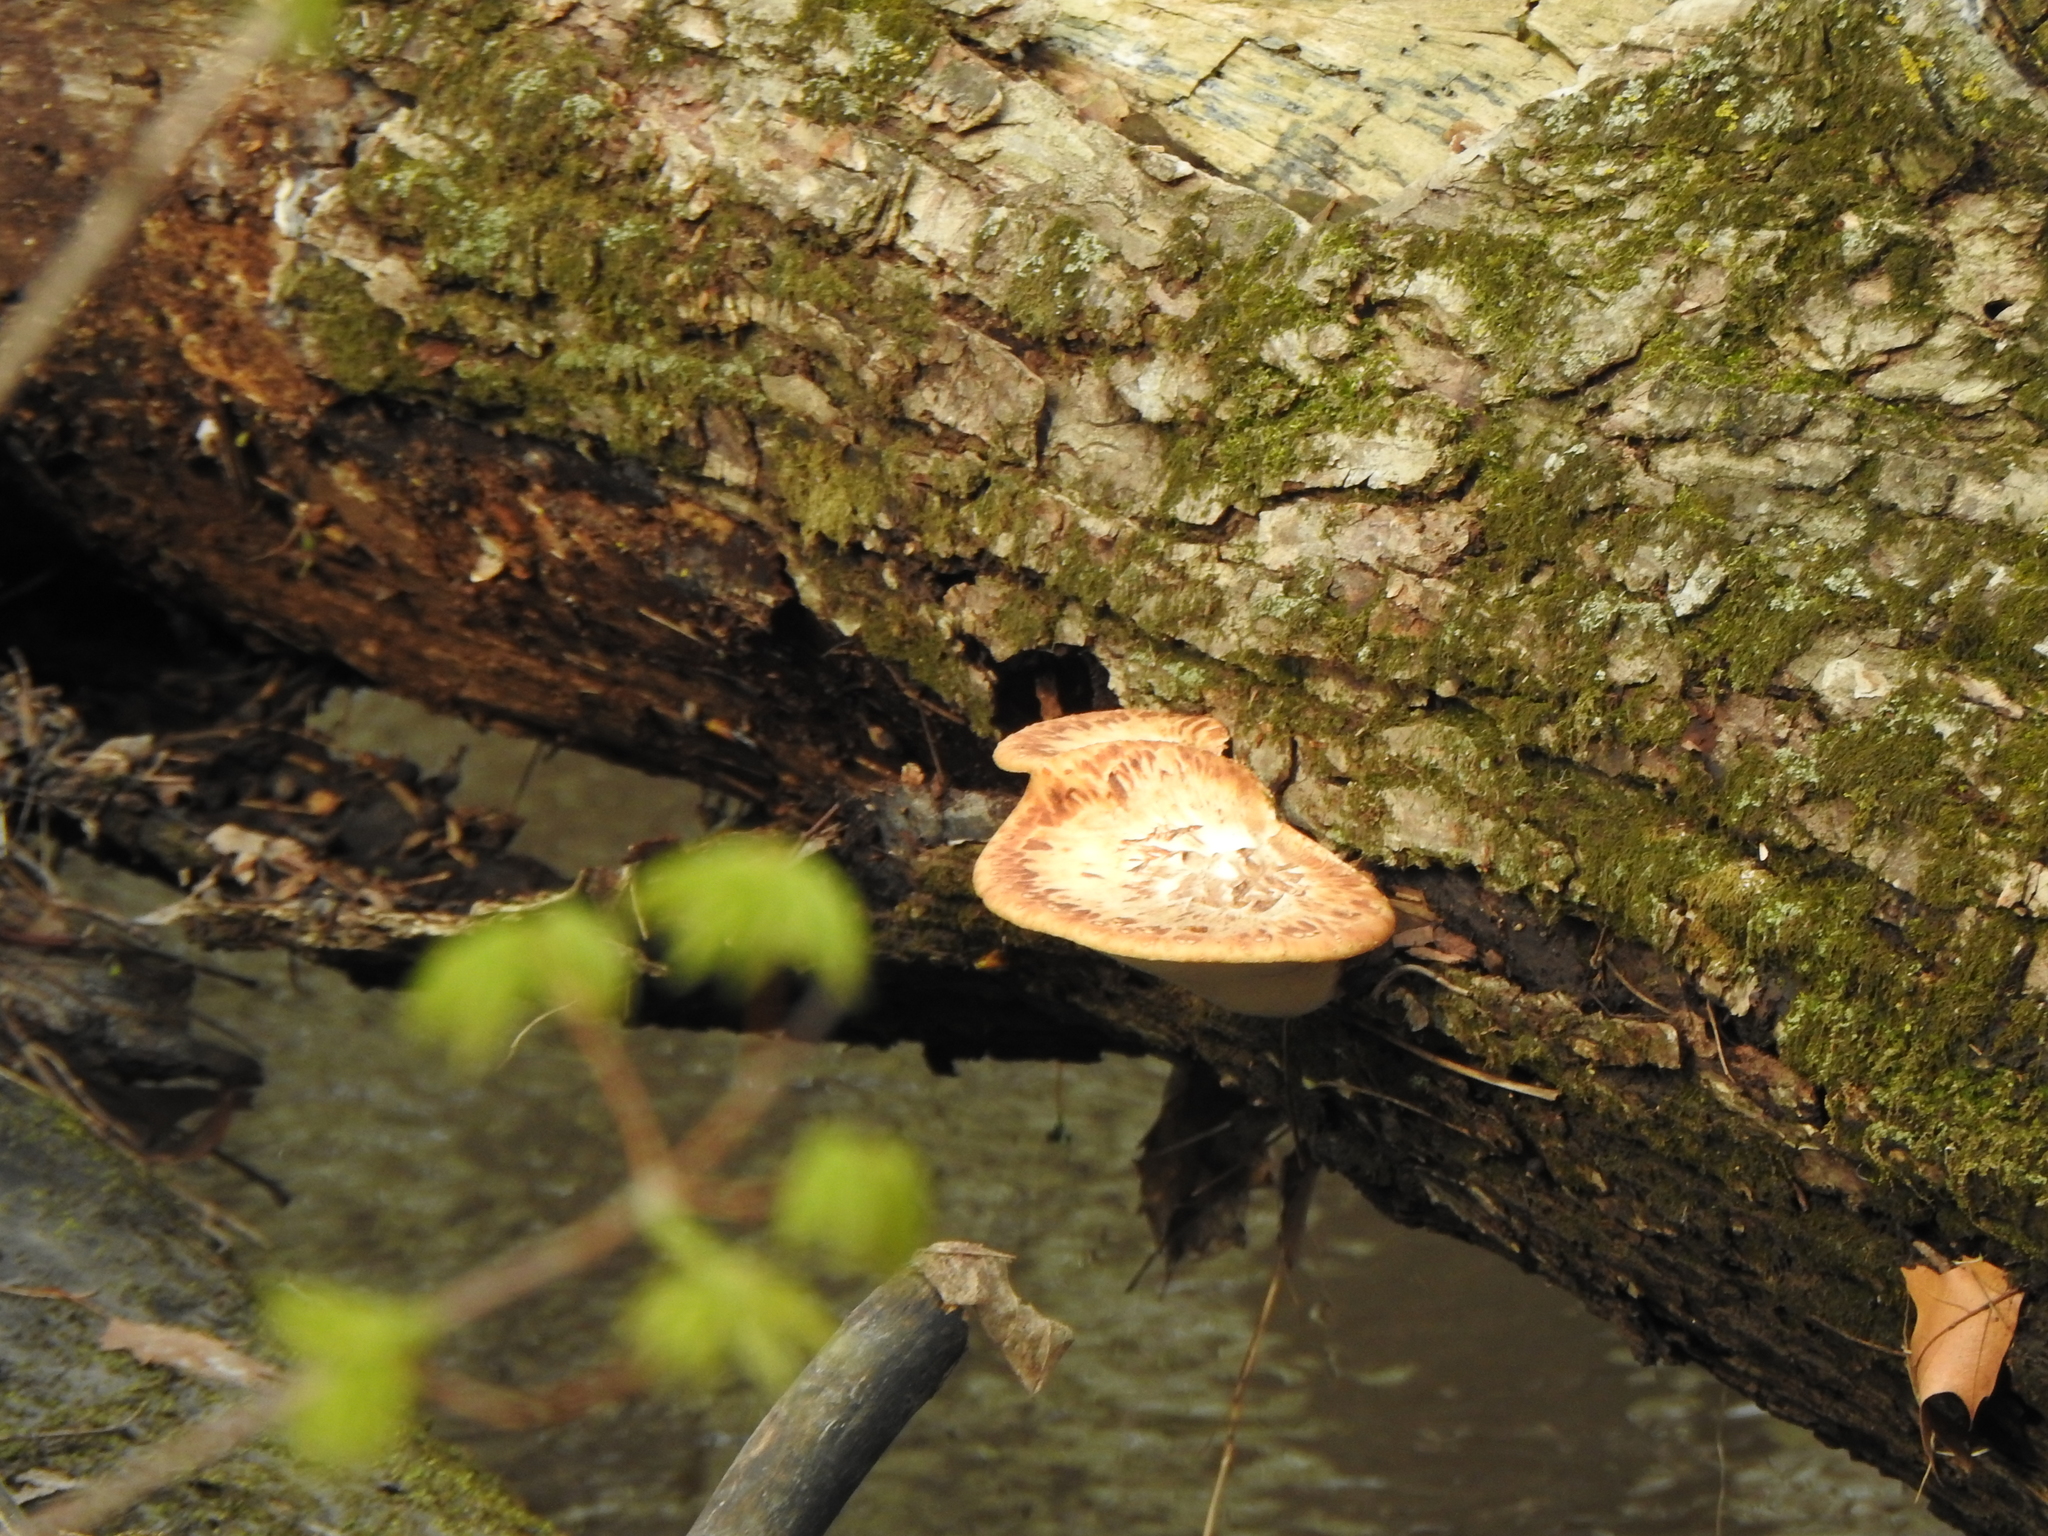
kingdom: Fungi
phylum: Basidiomycota
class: Agaricomycetes
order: Polyporales
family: Polyporaceae
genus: Cerioporus
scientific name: Cerioporus squamosus
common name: Dryad's saddle
